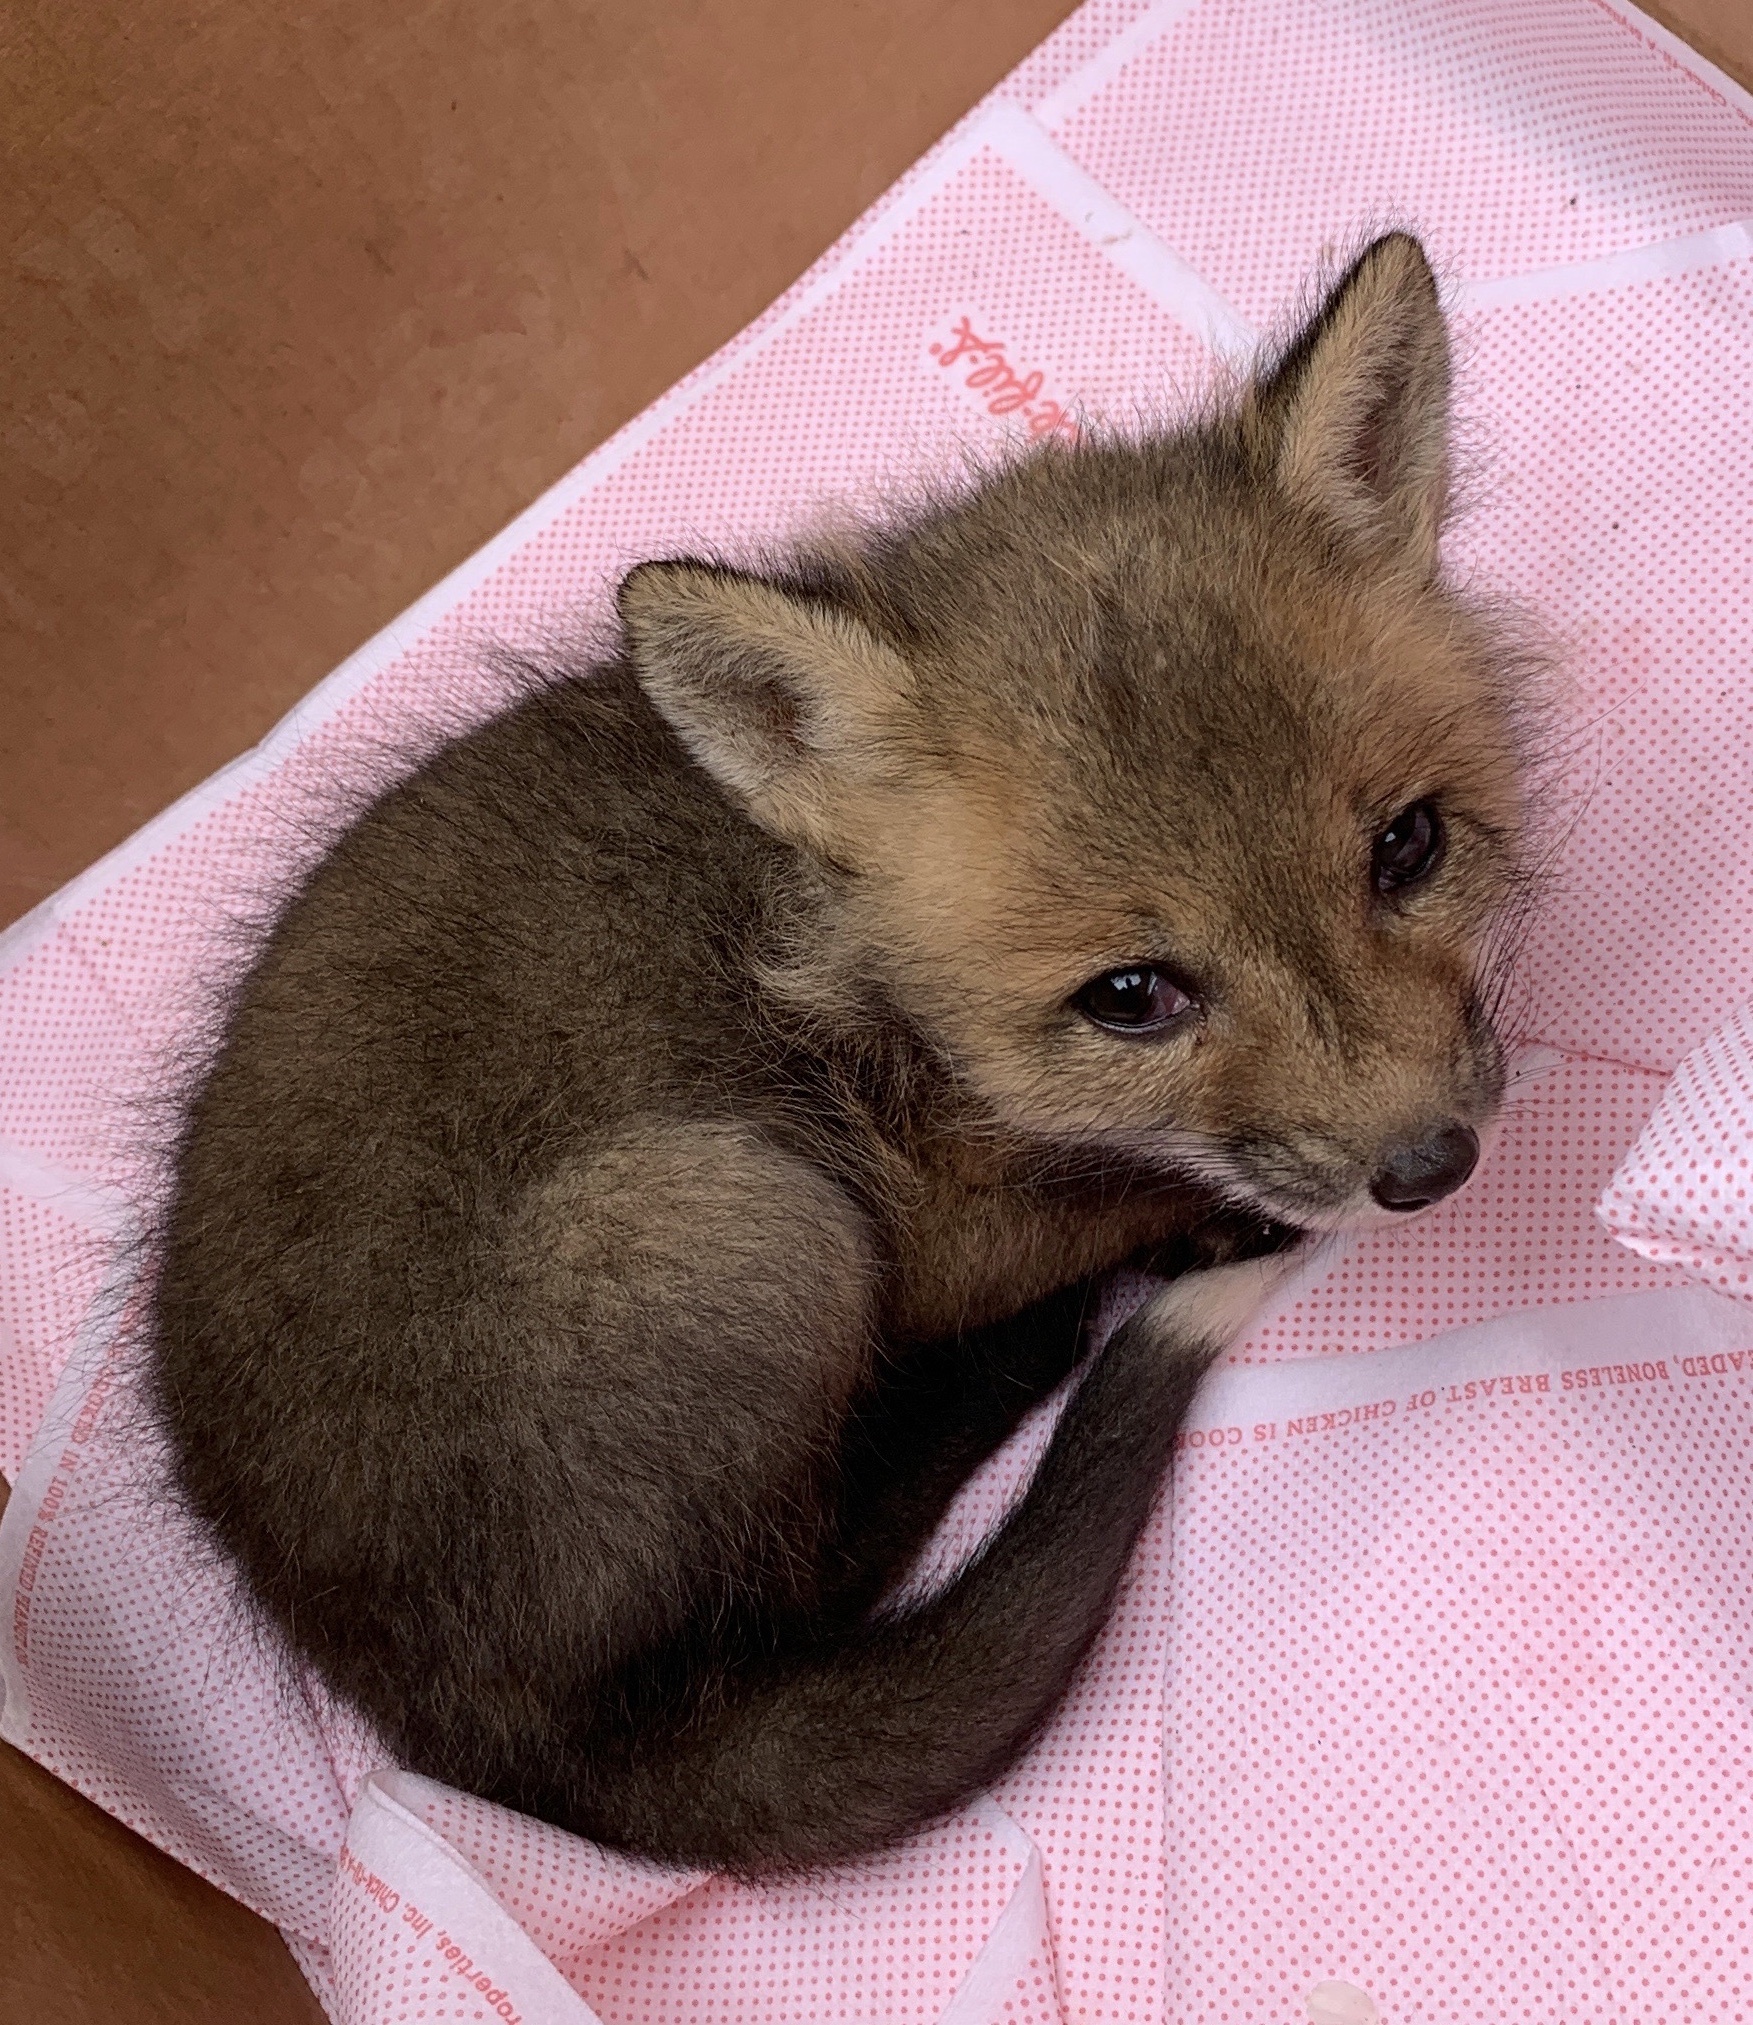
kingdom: Animalia
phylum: Chordata
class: Mammalia
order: Carnivora
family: Canidae
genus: Vulpes
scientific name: Vulpes vulpes
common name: Red fox
